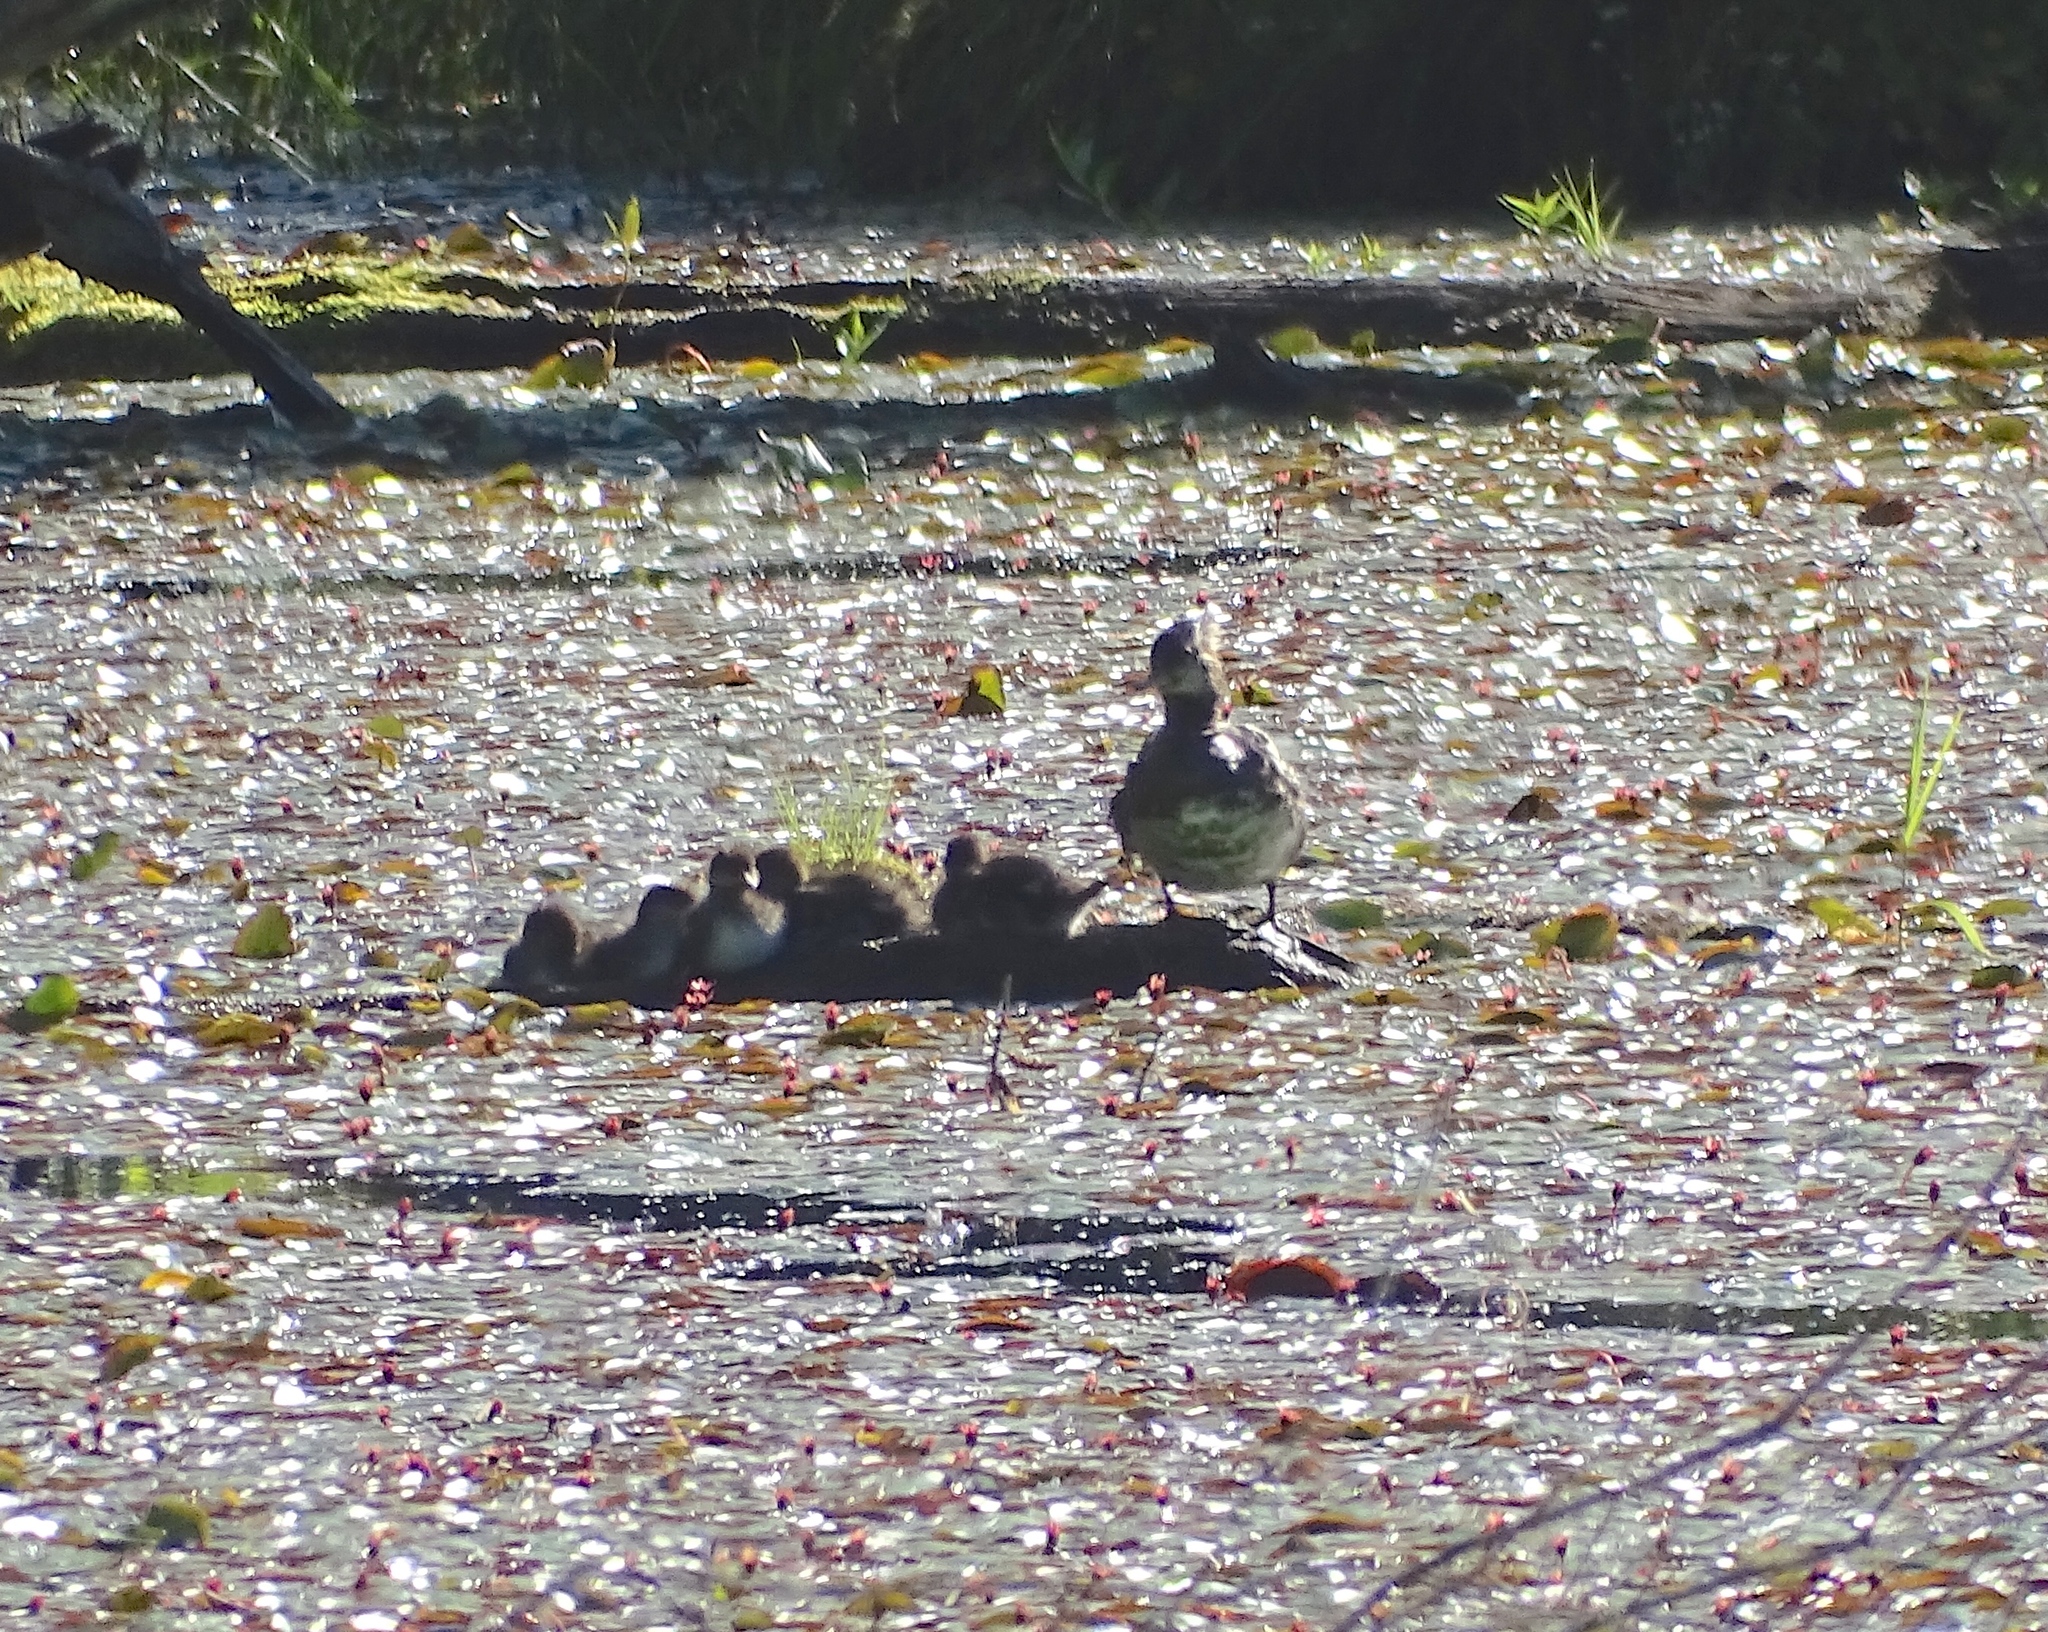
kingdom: Animalia
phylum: Chordata
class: Aves
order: Anseriformes
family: Anatidae
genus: Lophodytes
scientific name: Lophodytes cucullatus
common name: Hooded merganser
